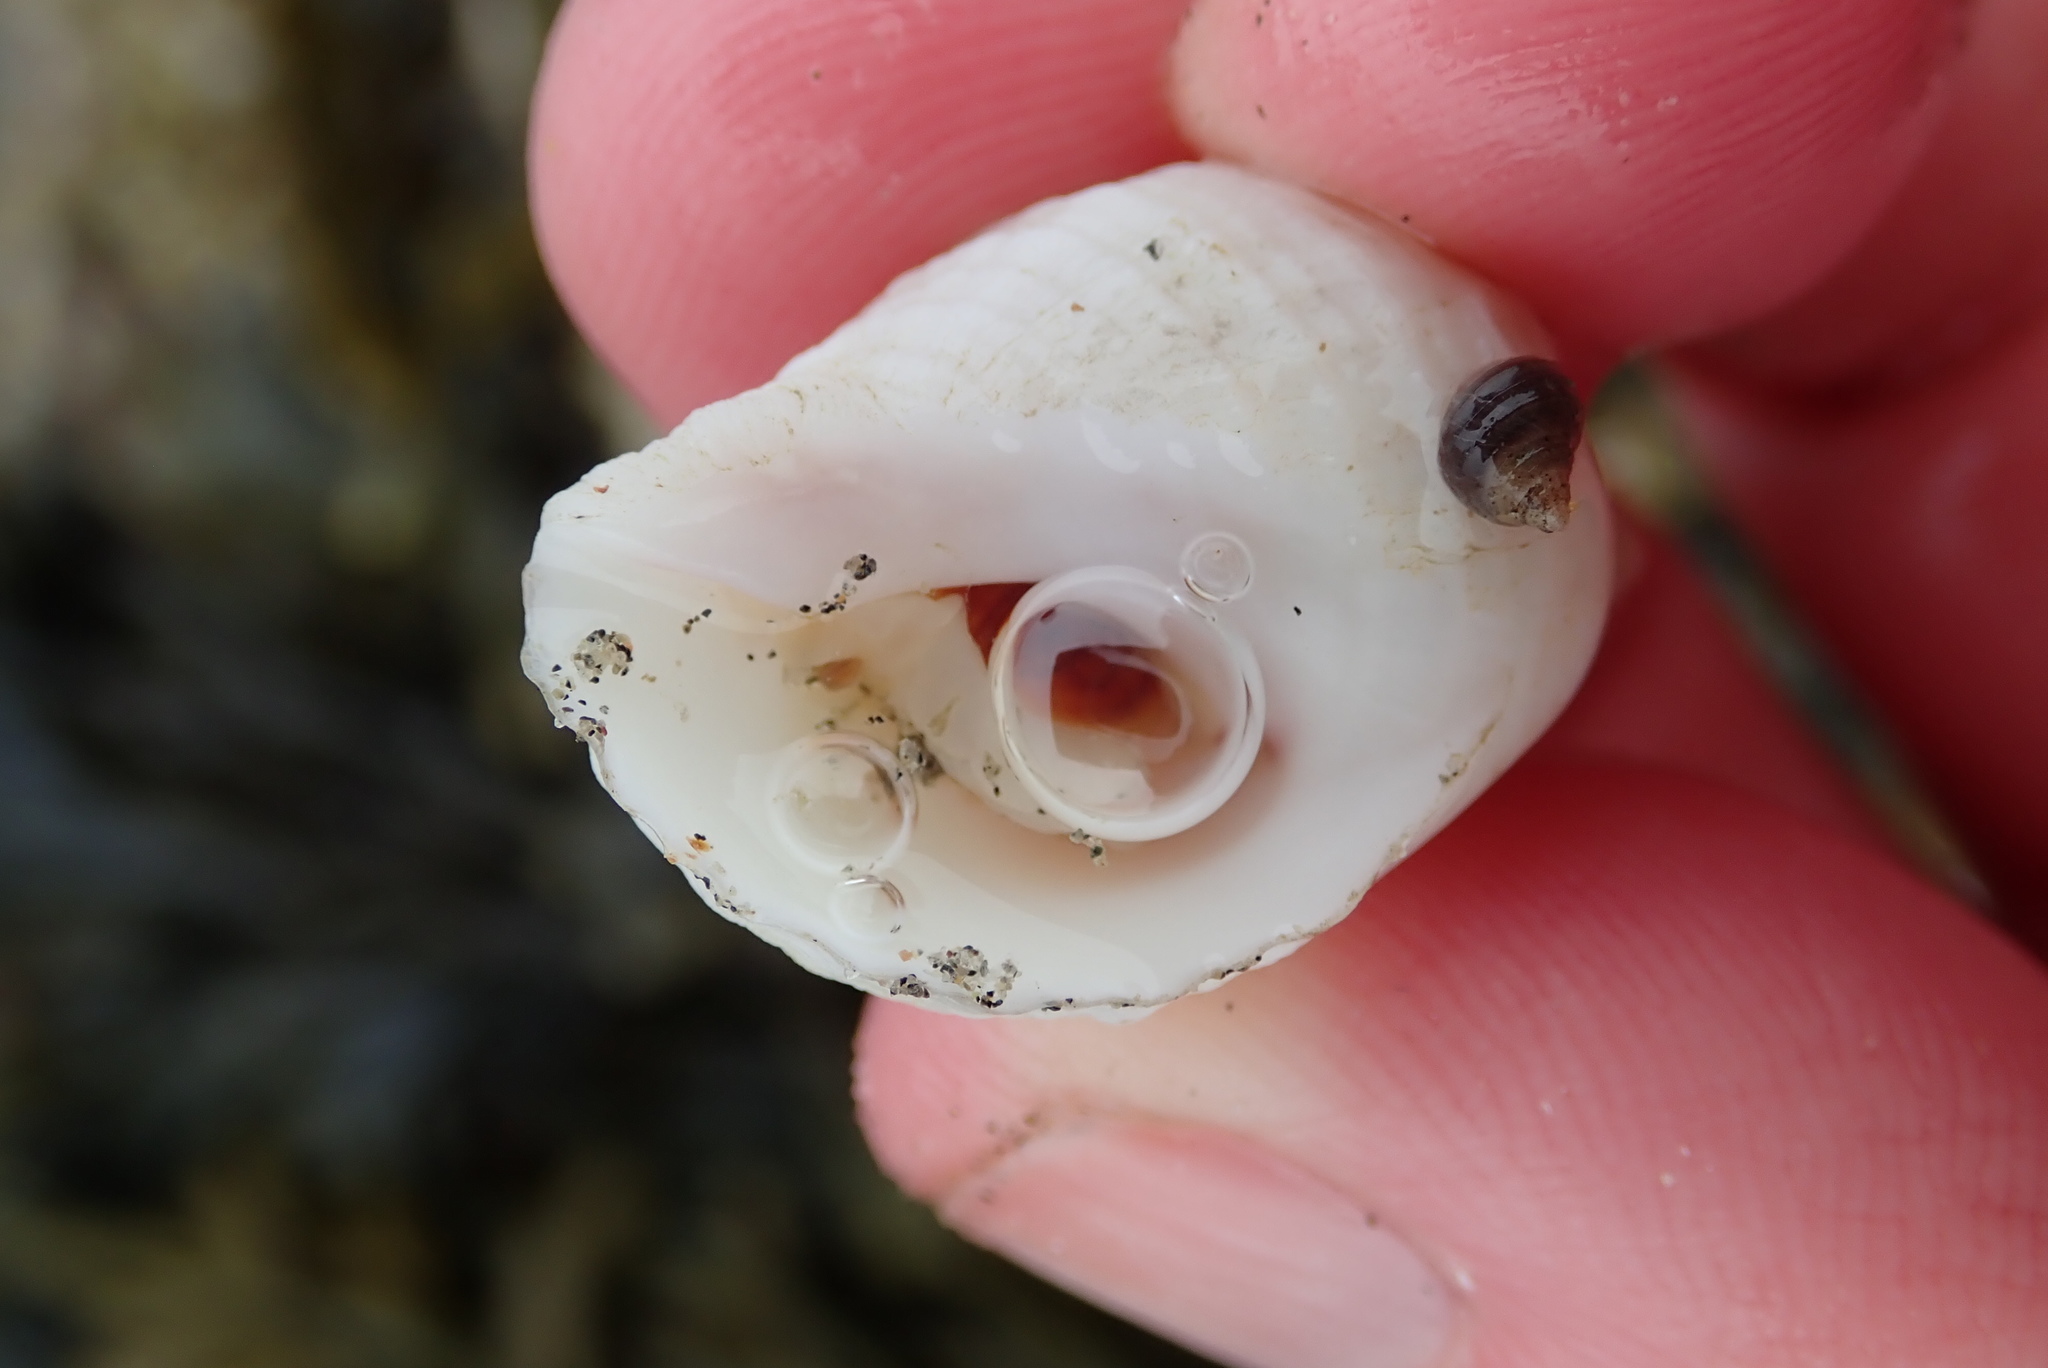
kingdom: Animalia
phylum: Mollusca
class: Gastropoda
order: Neogastropoda
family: Muricidae
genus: Nucella
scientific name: Nucella lapillus
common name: Dog whelk
